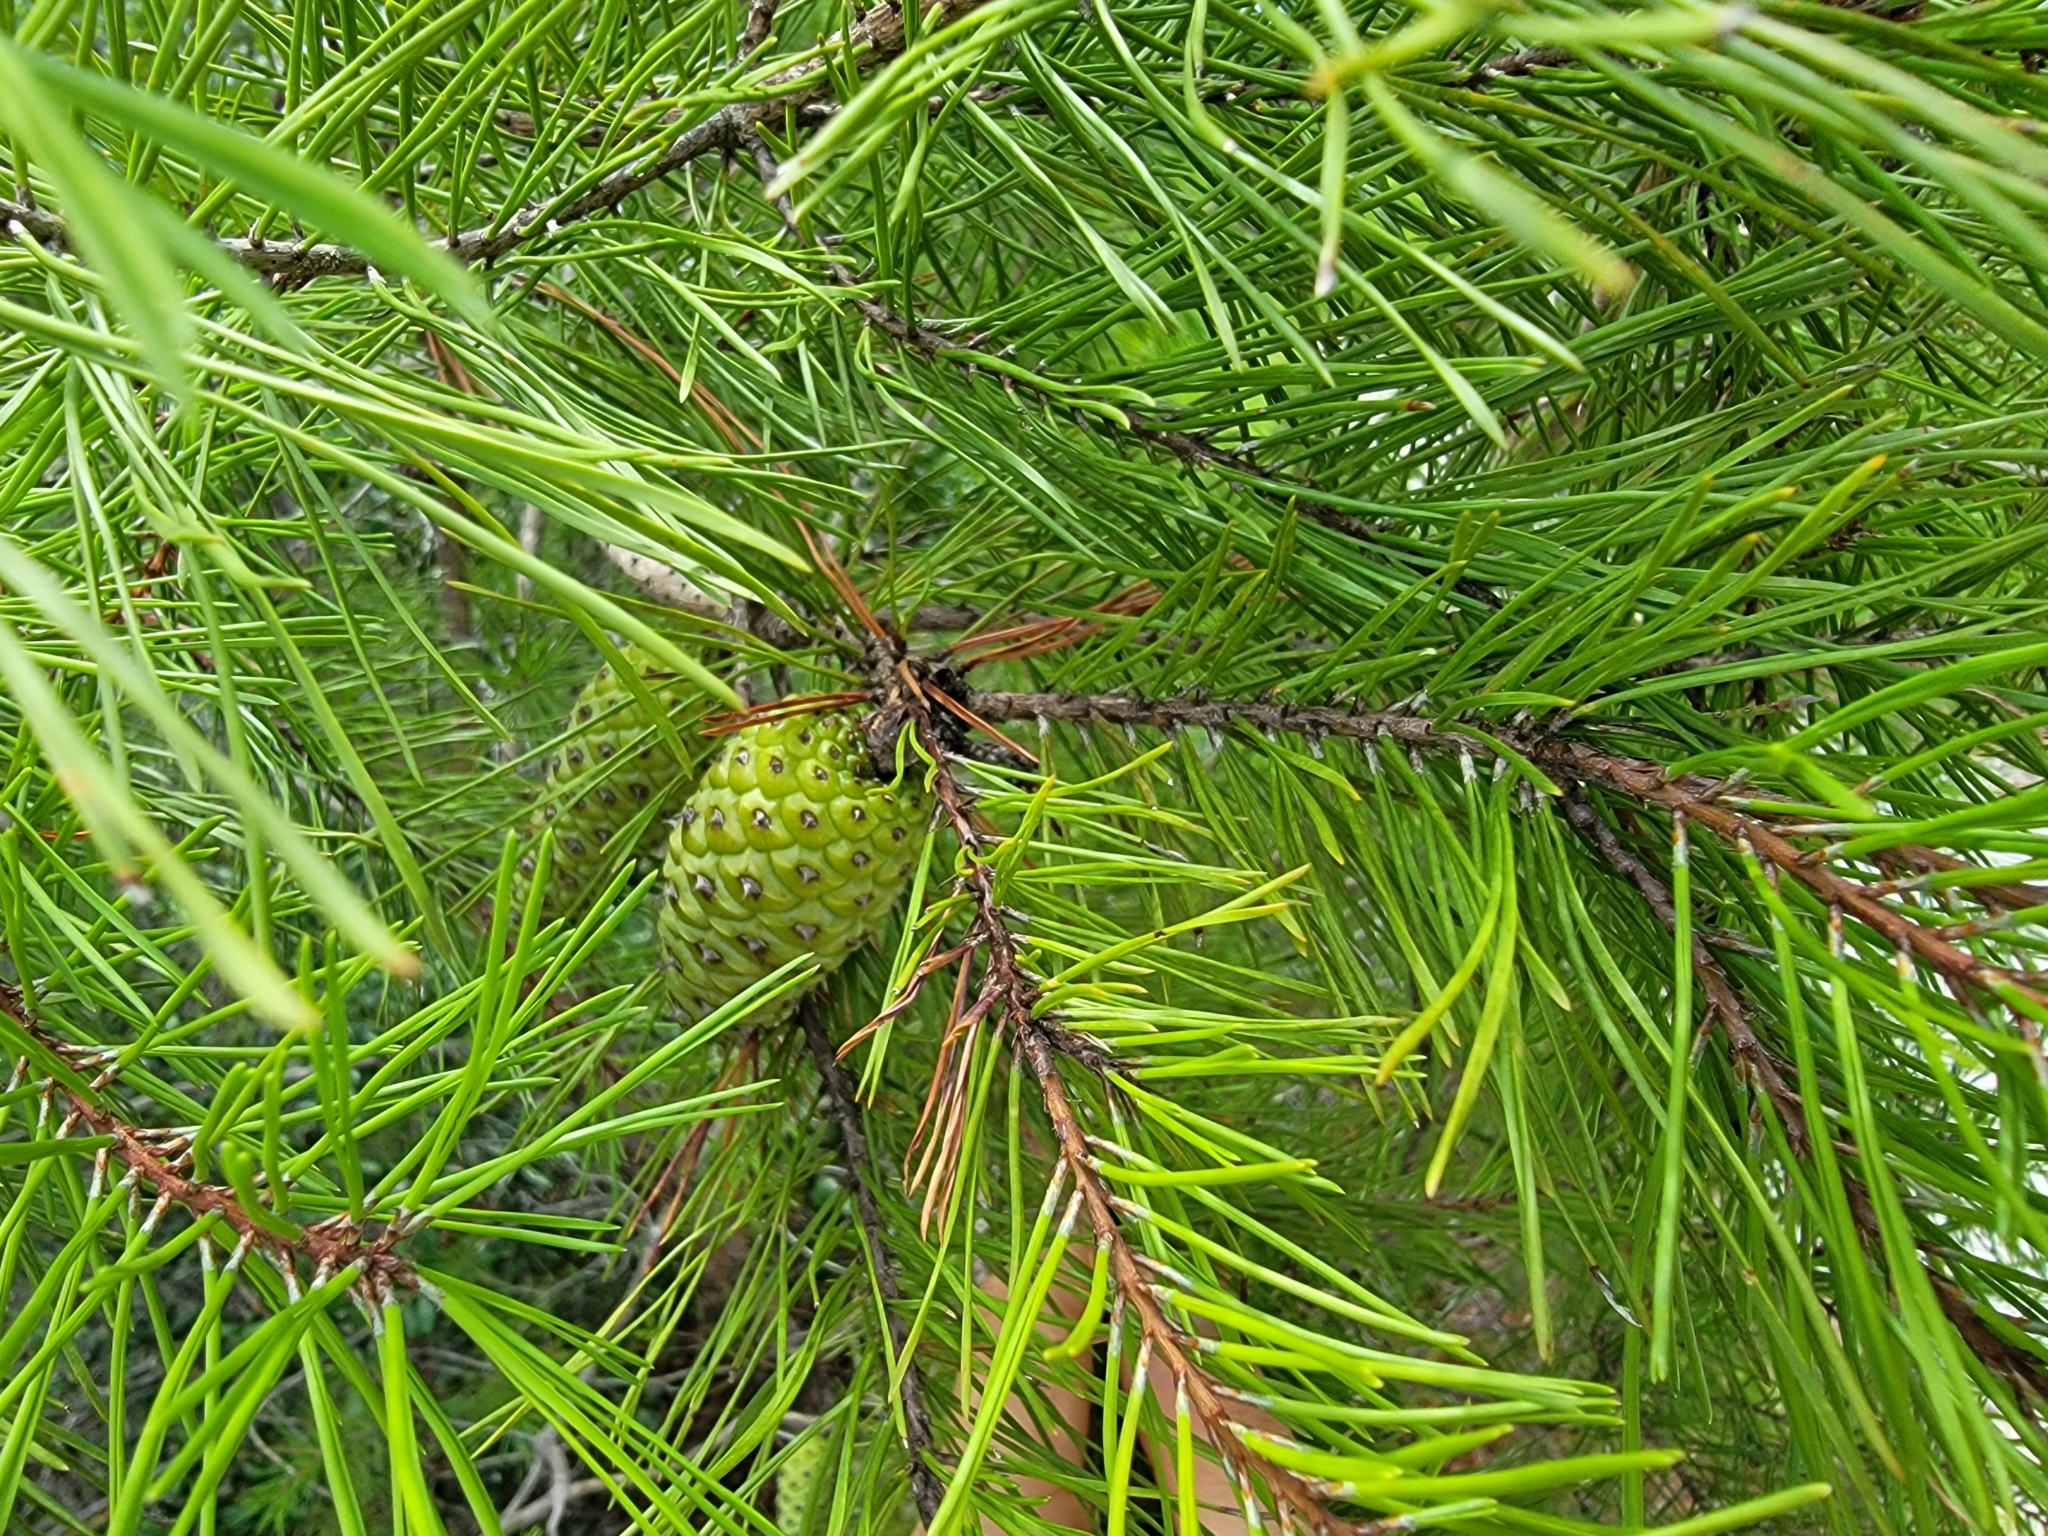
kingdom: Plantae
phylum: Tracheophyta
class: Pinopsida
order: Pinales
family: Pinaceae
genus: Pinus
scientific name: Pinus clausa
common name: Sand pine
